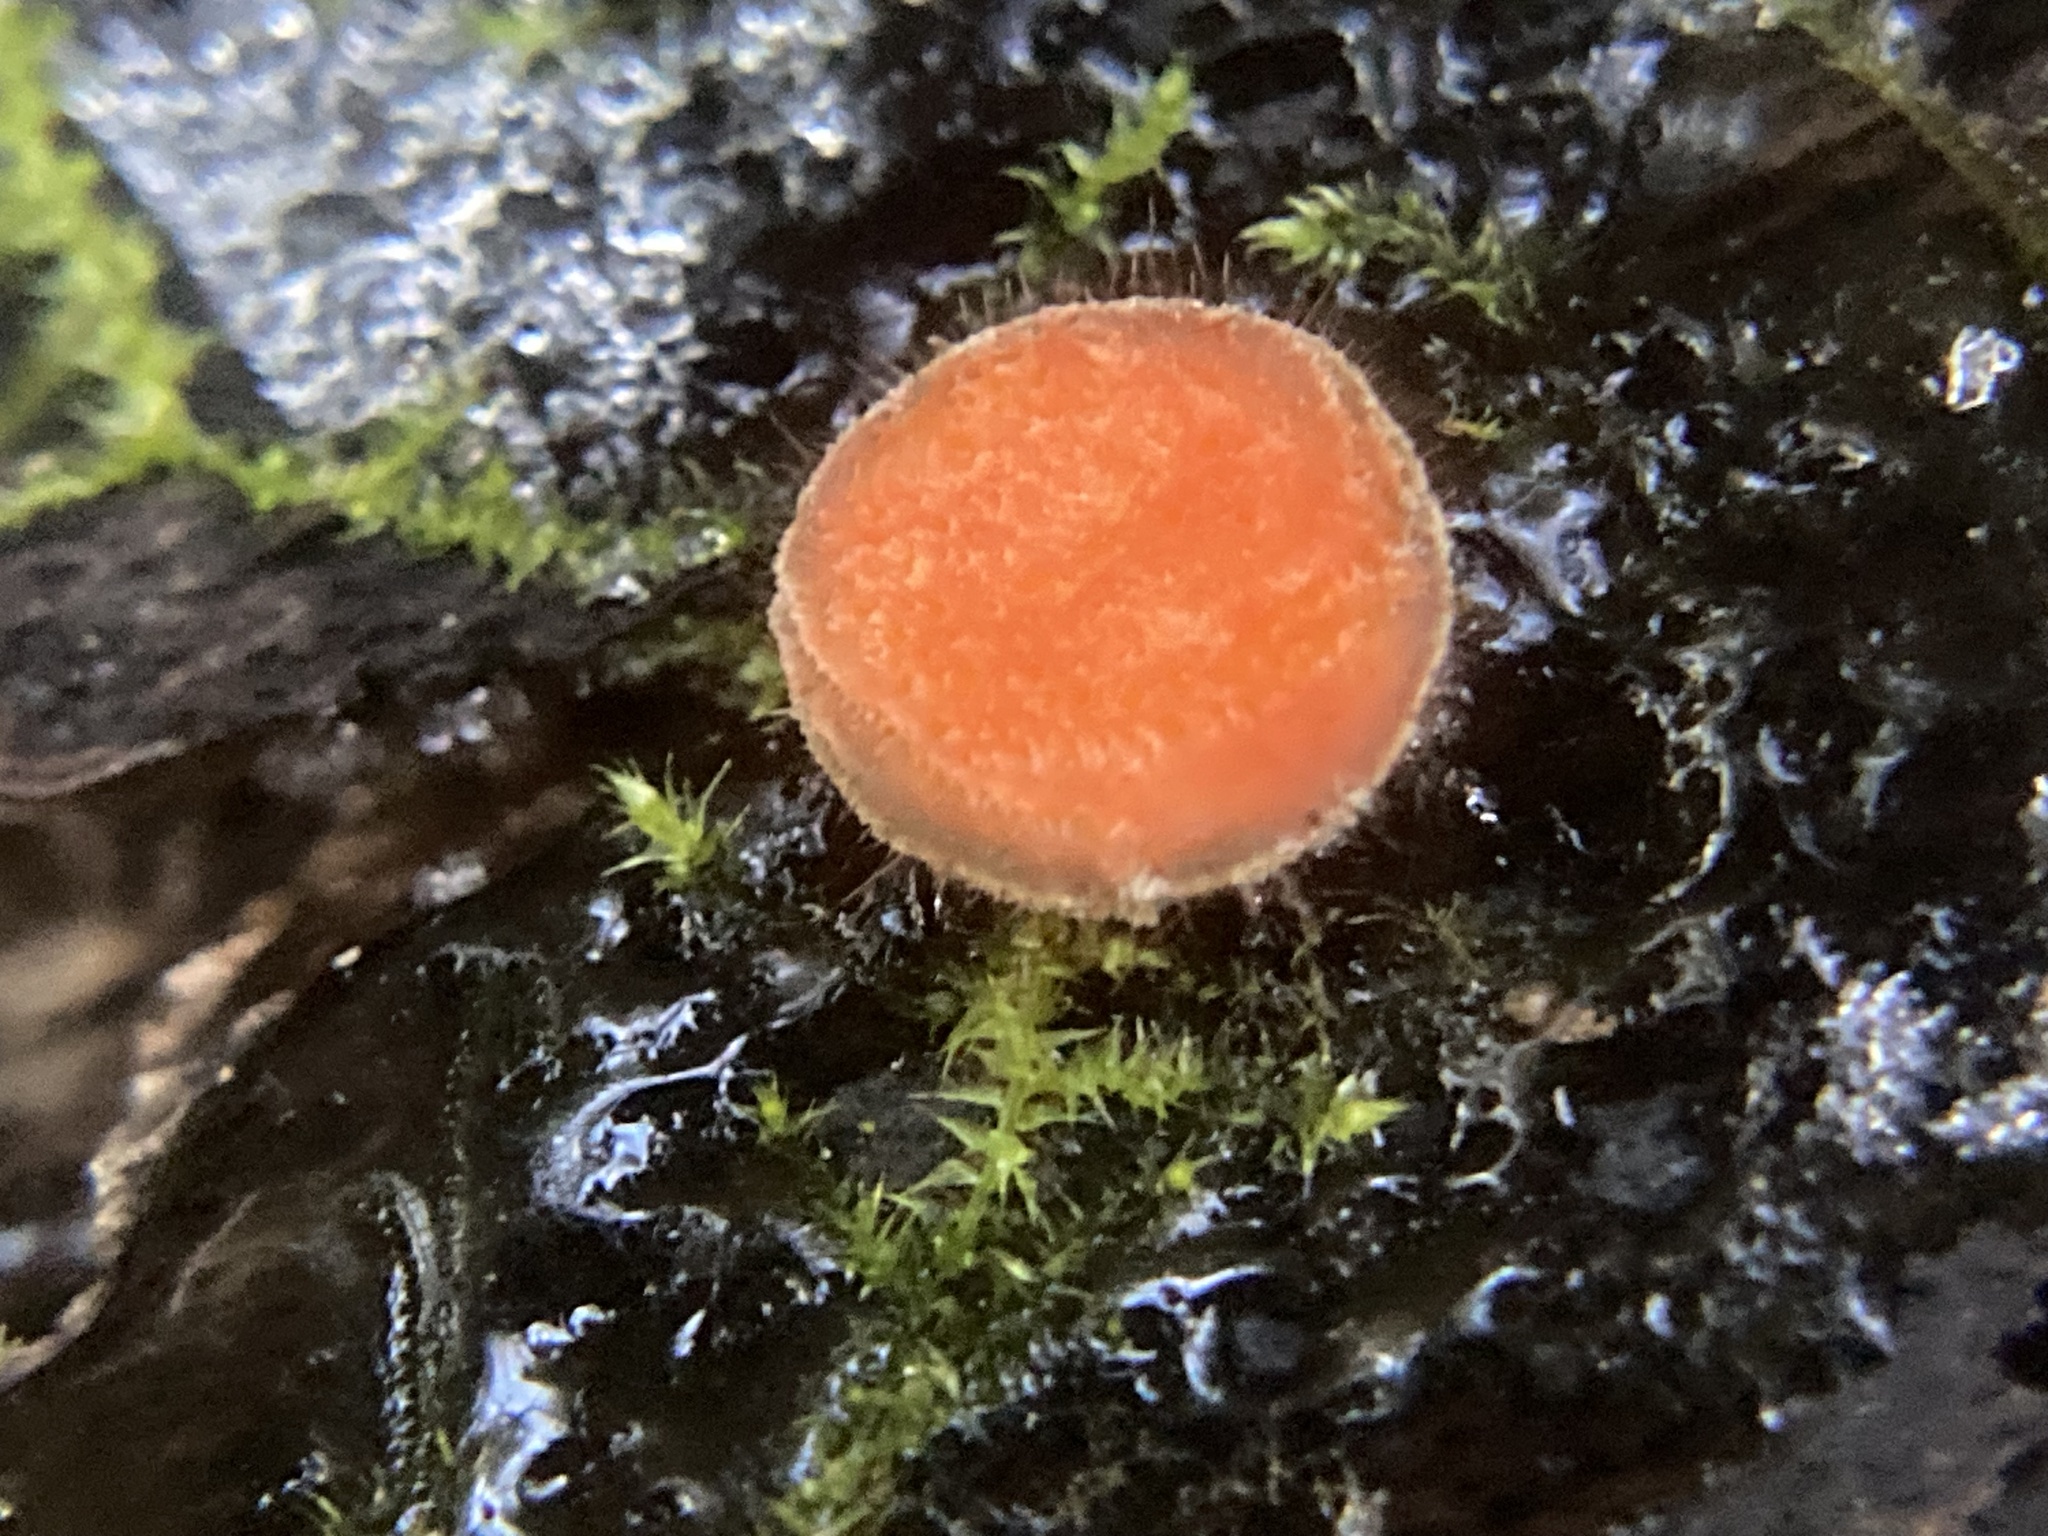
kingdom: Fungi
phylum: Ascomycota
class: Pezizomycetes
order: Pezizales
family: Pyronemataceae
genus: Scutellinia
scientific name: Scutellinia scutellata
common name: Common eyelash
